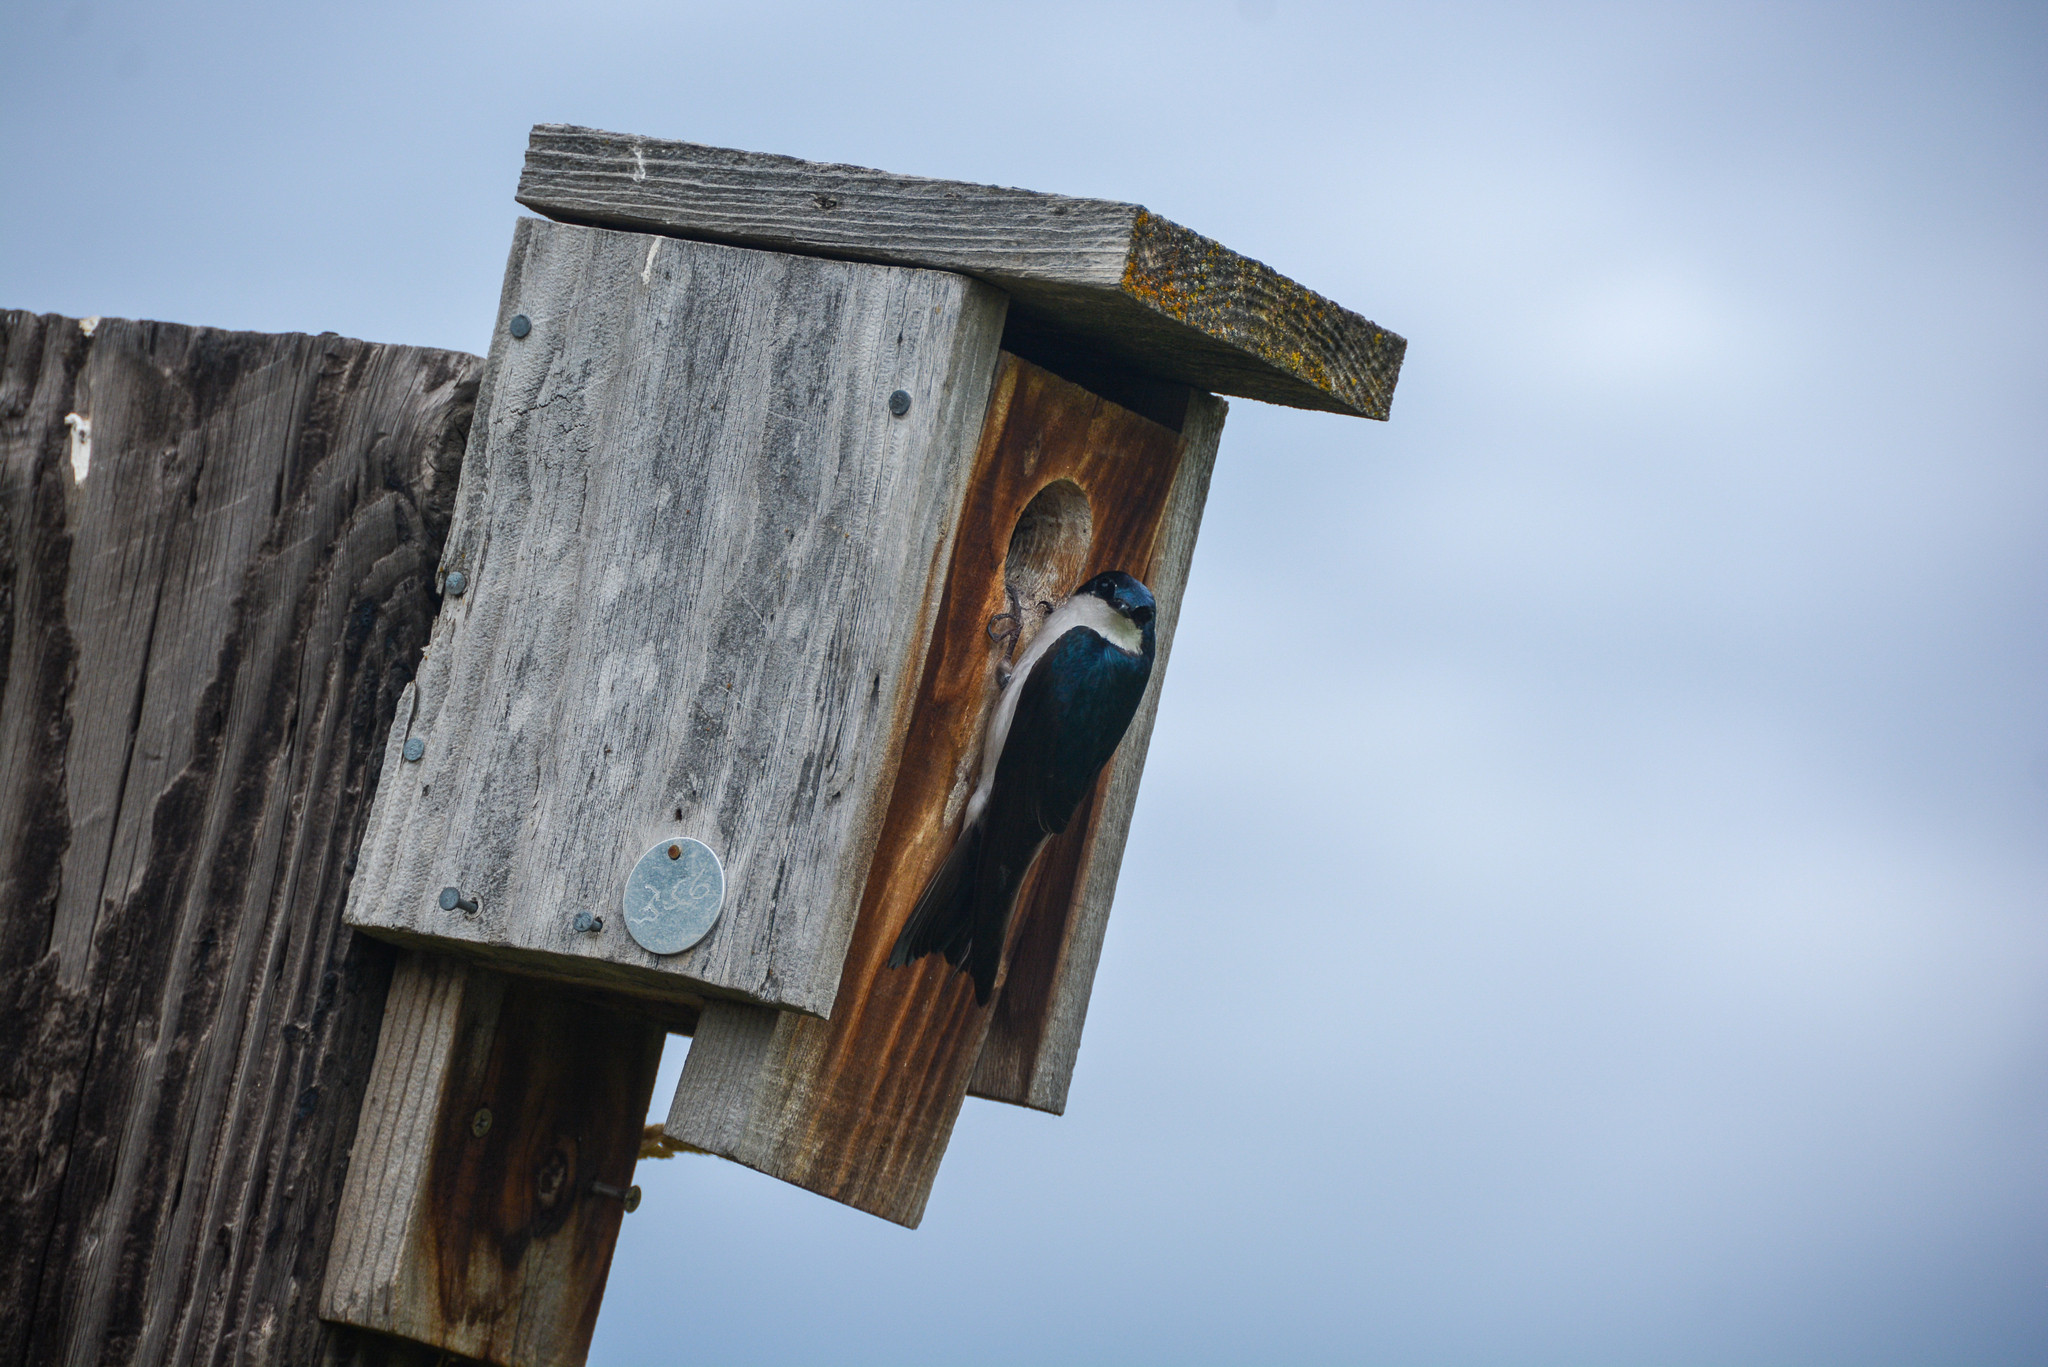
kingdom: Animalia
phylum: Chordata
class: Aves
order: Passeriformes
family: Hirundinidae
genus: Tachycineta
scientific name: Tachycineta bicolor
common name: Tree swallow
